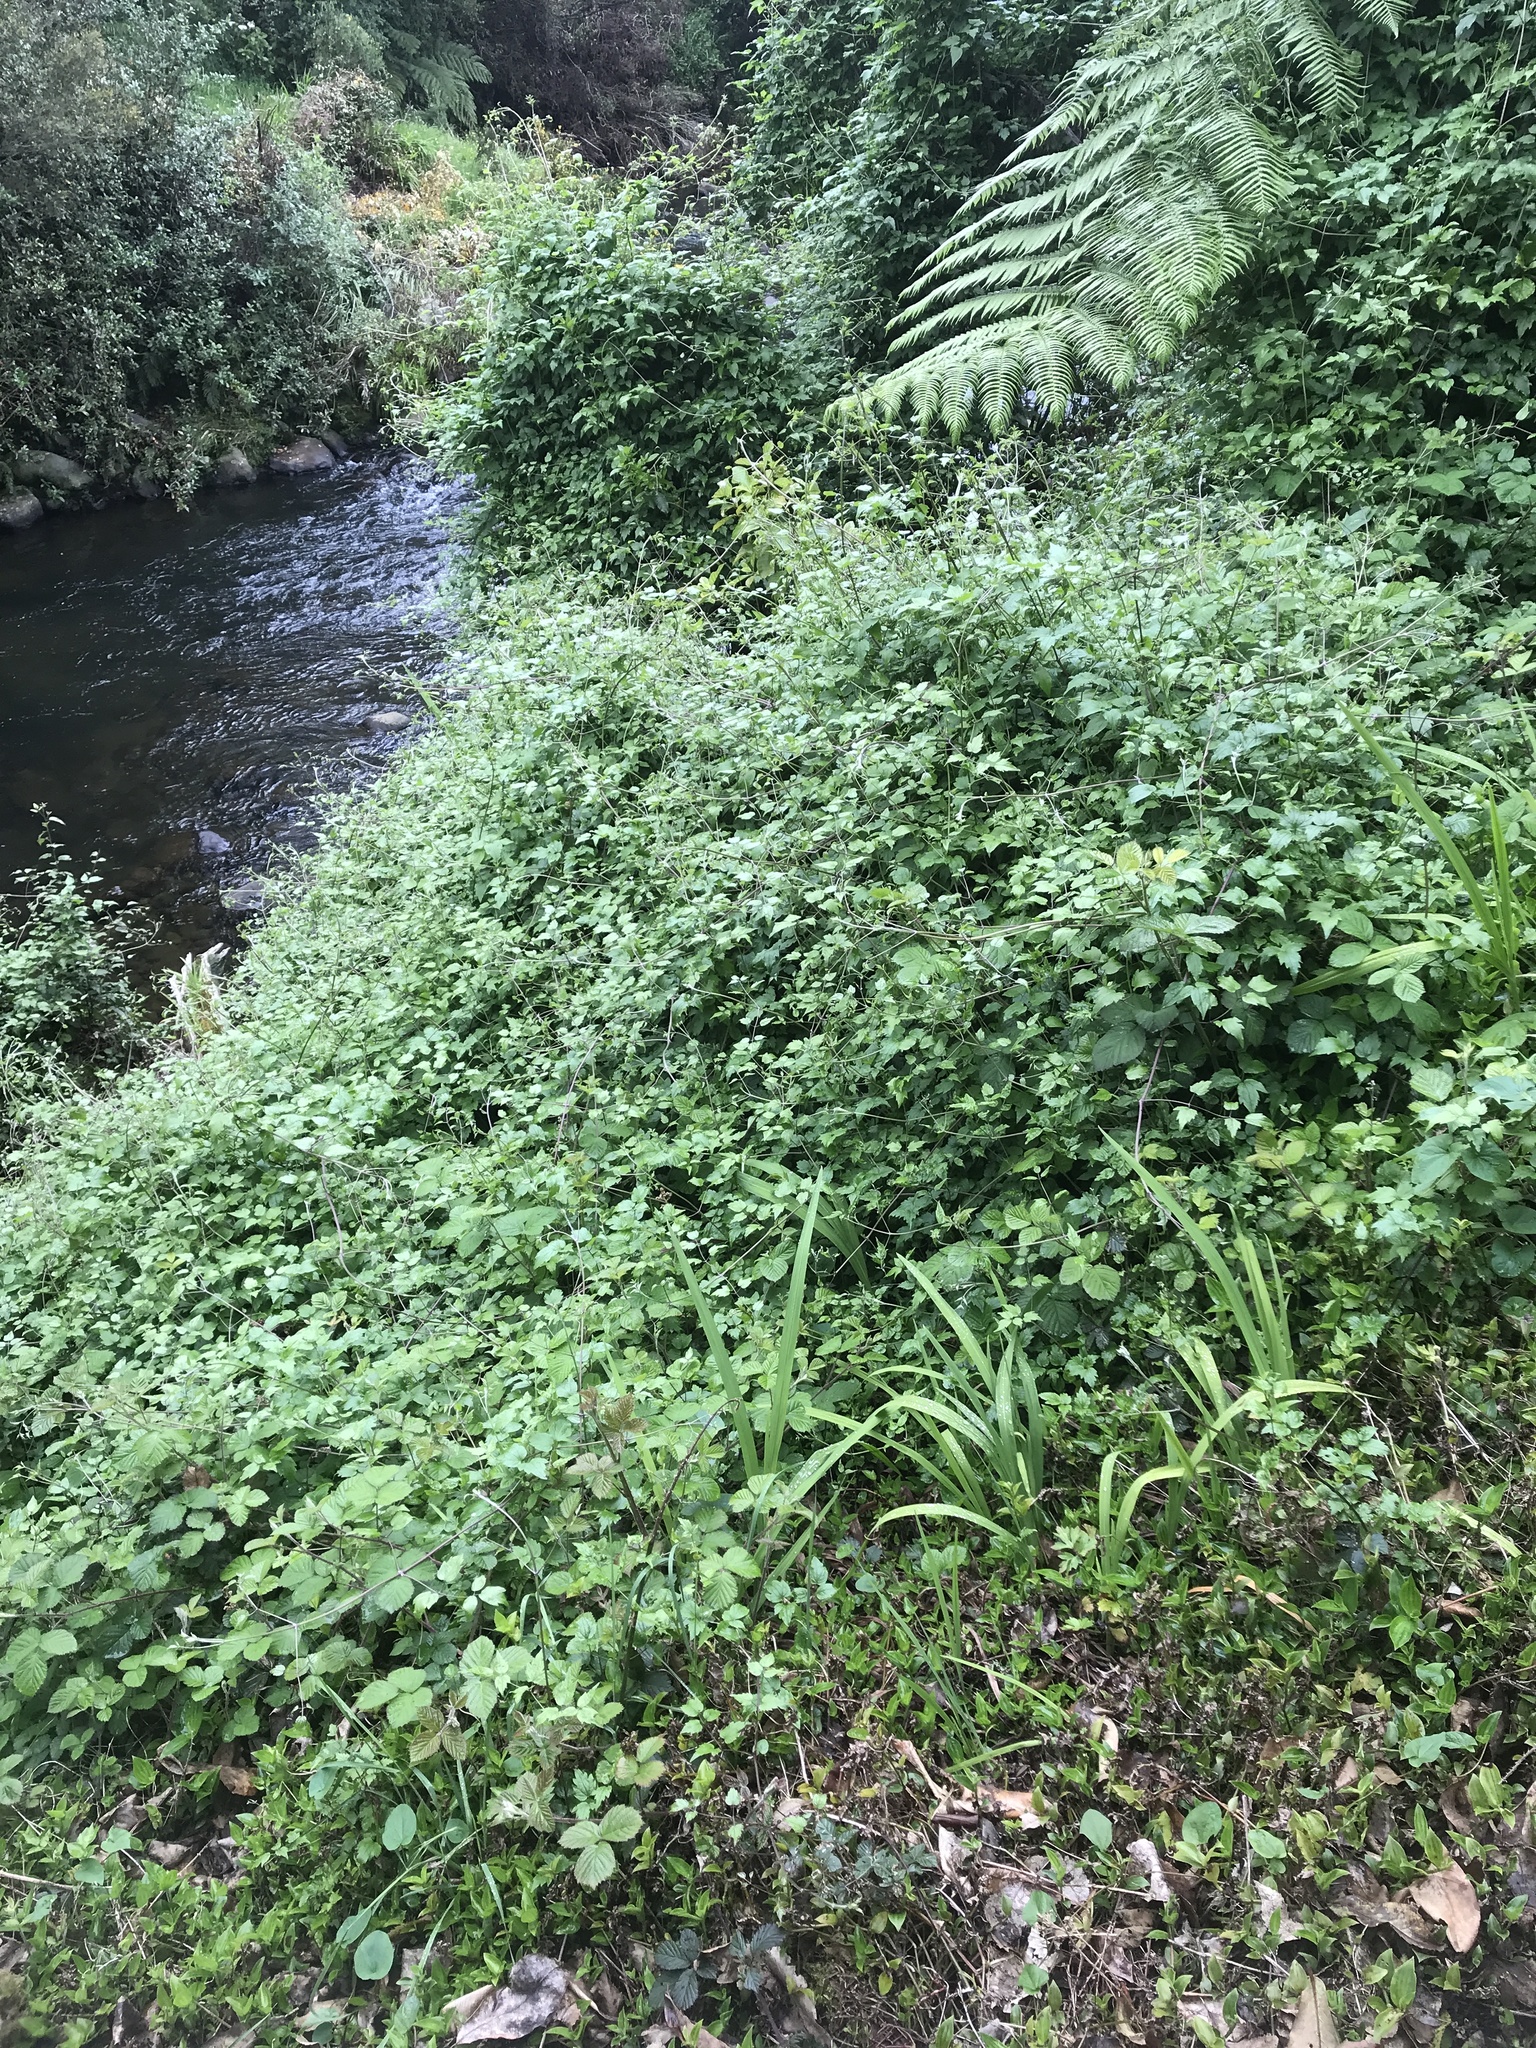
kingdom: Plantae
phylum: Tracheophyta
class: Magnoliopsida
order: Ranunculales
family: Ranunculaceae
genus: Clematis
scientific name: Clematis vitalba
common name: Evergreen clematis
